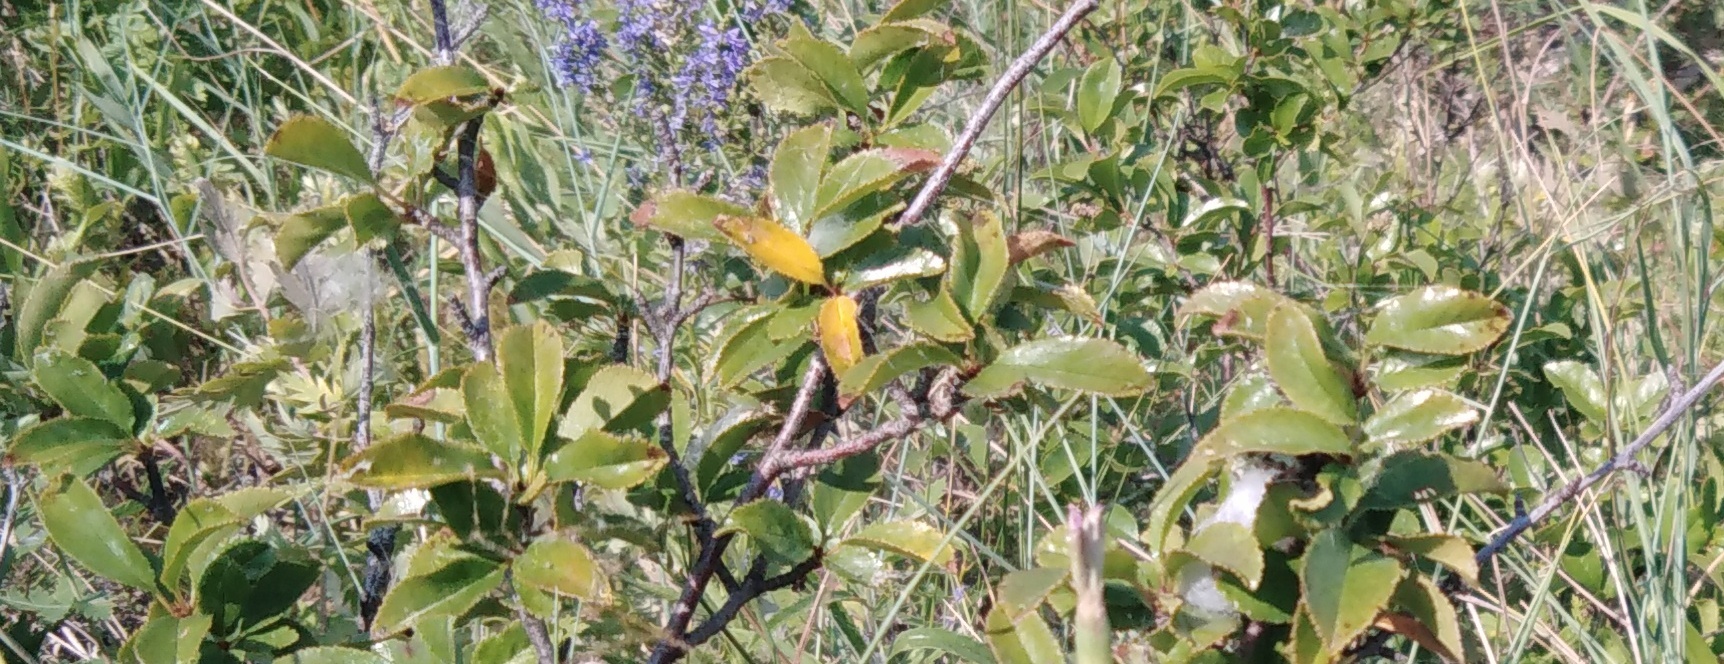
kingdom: Plantae
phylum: Tracheophyta
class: Magnoliopsida
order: Rosales
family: Rosaceae
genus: Prunus
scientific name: Prunus fruticosa
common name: European dwarf cherry
